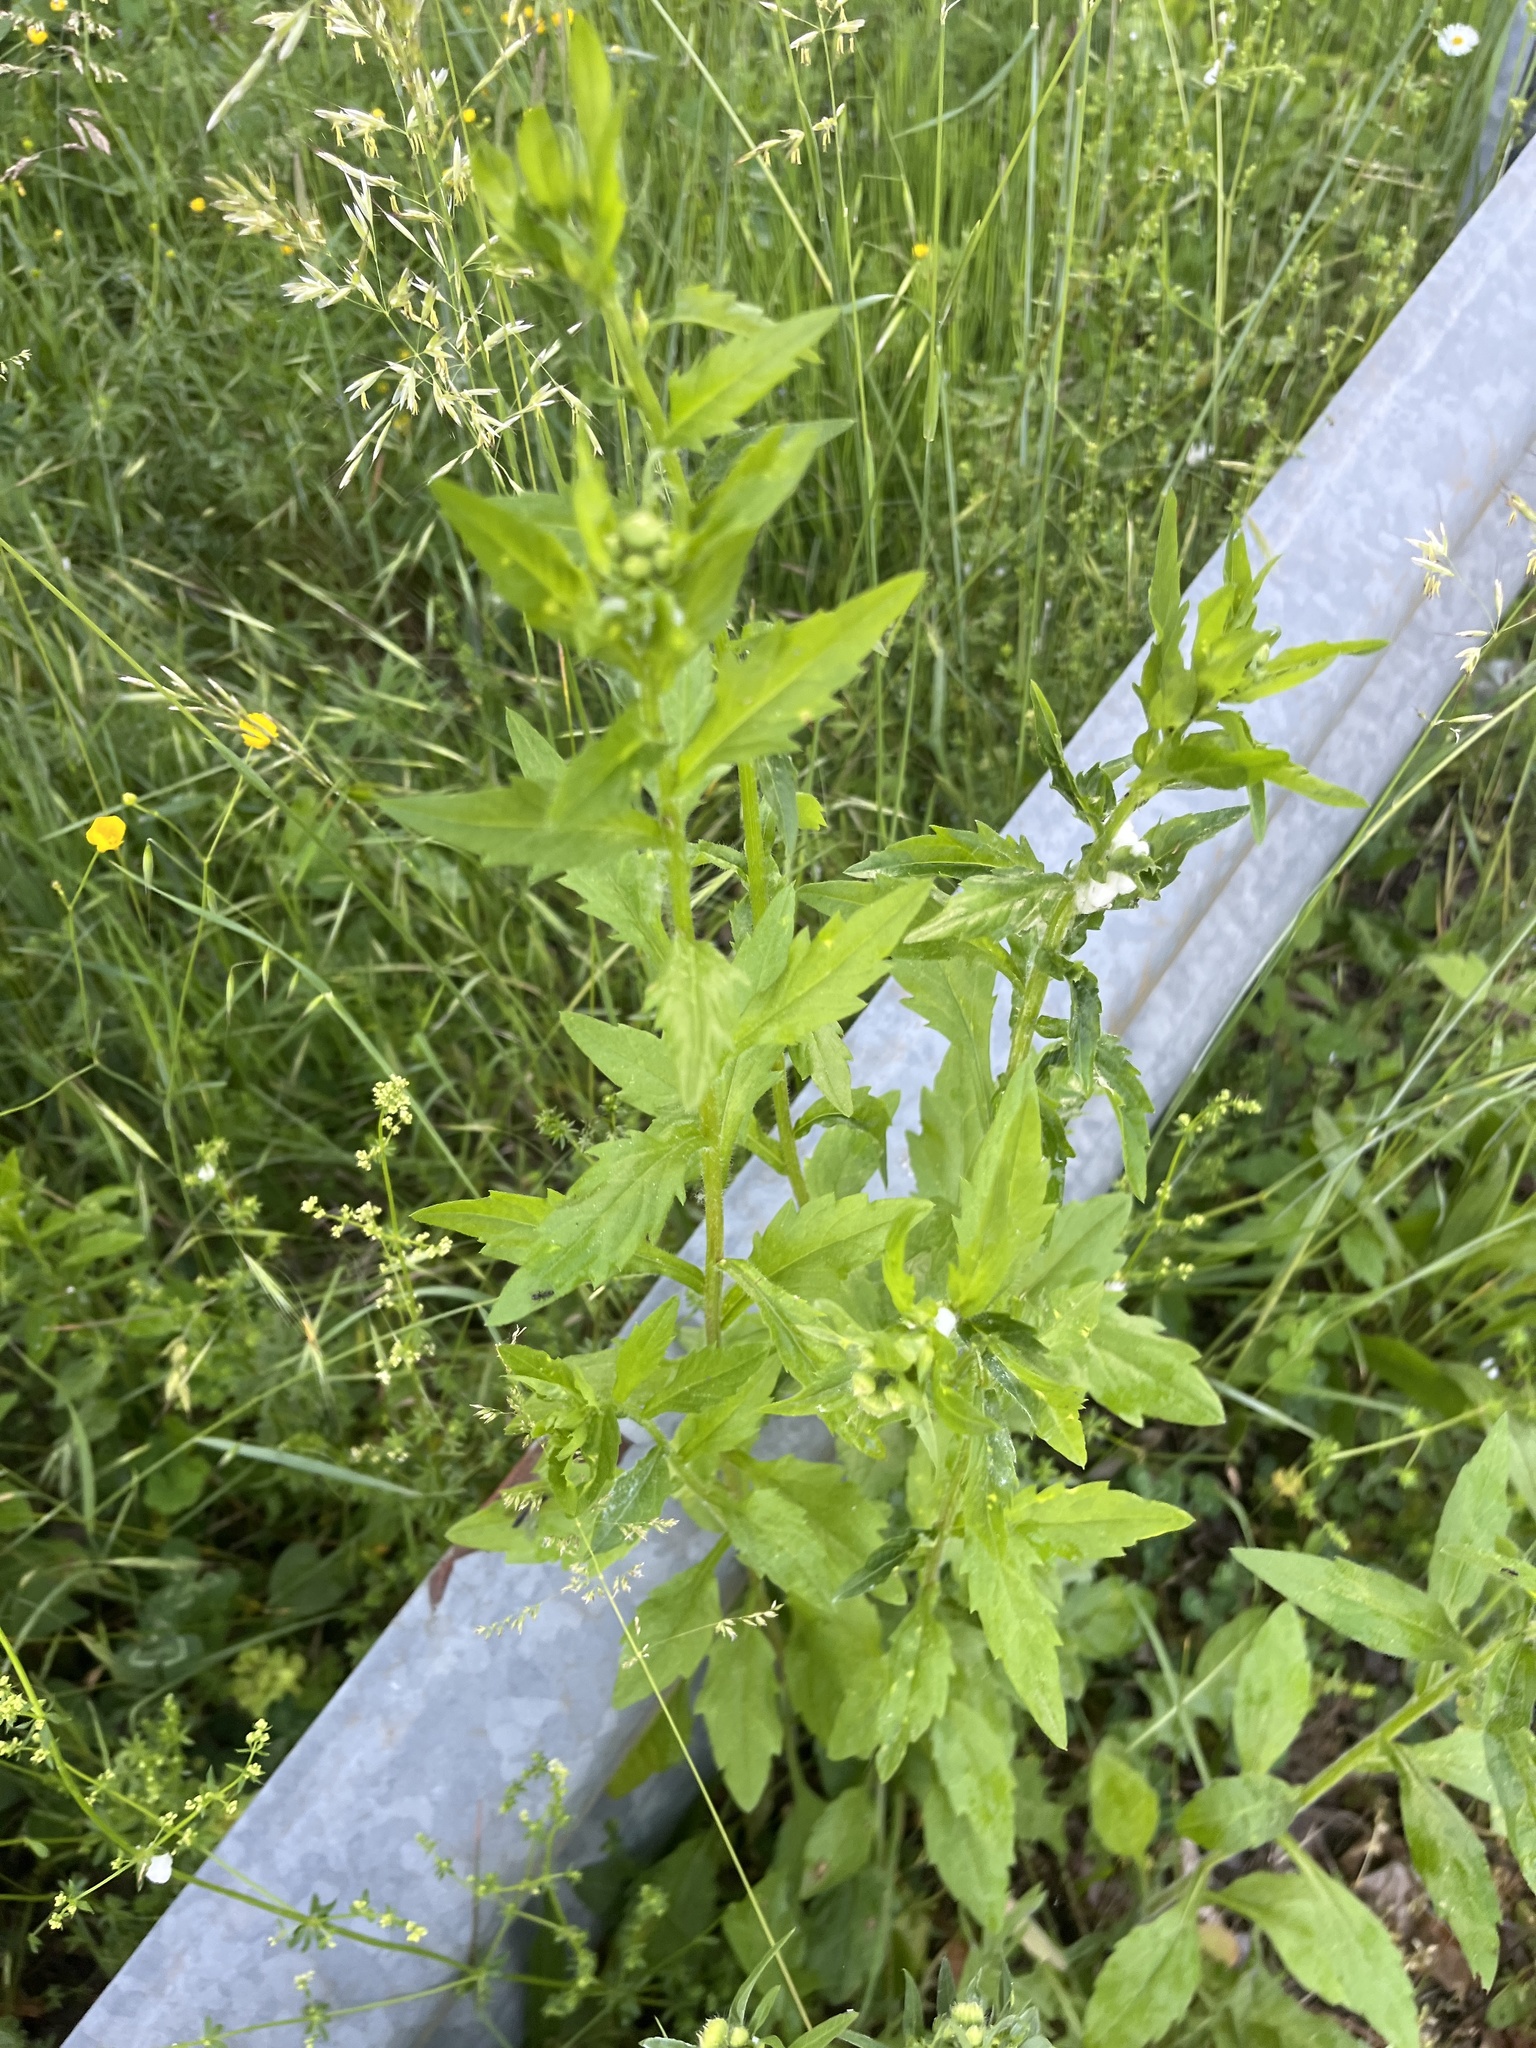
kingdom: Plantae
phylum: Tracheophyta
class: Magnoliopsida
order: Asterales
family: Asteraceae
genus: Erigeron
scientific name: Erigeron annuus
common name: Tall fleabane
